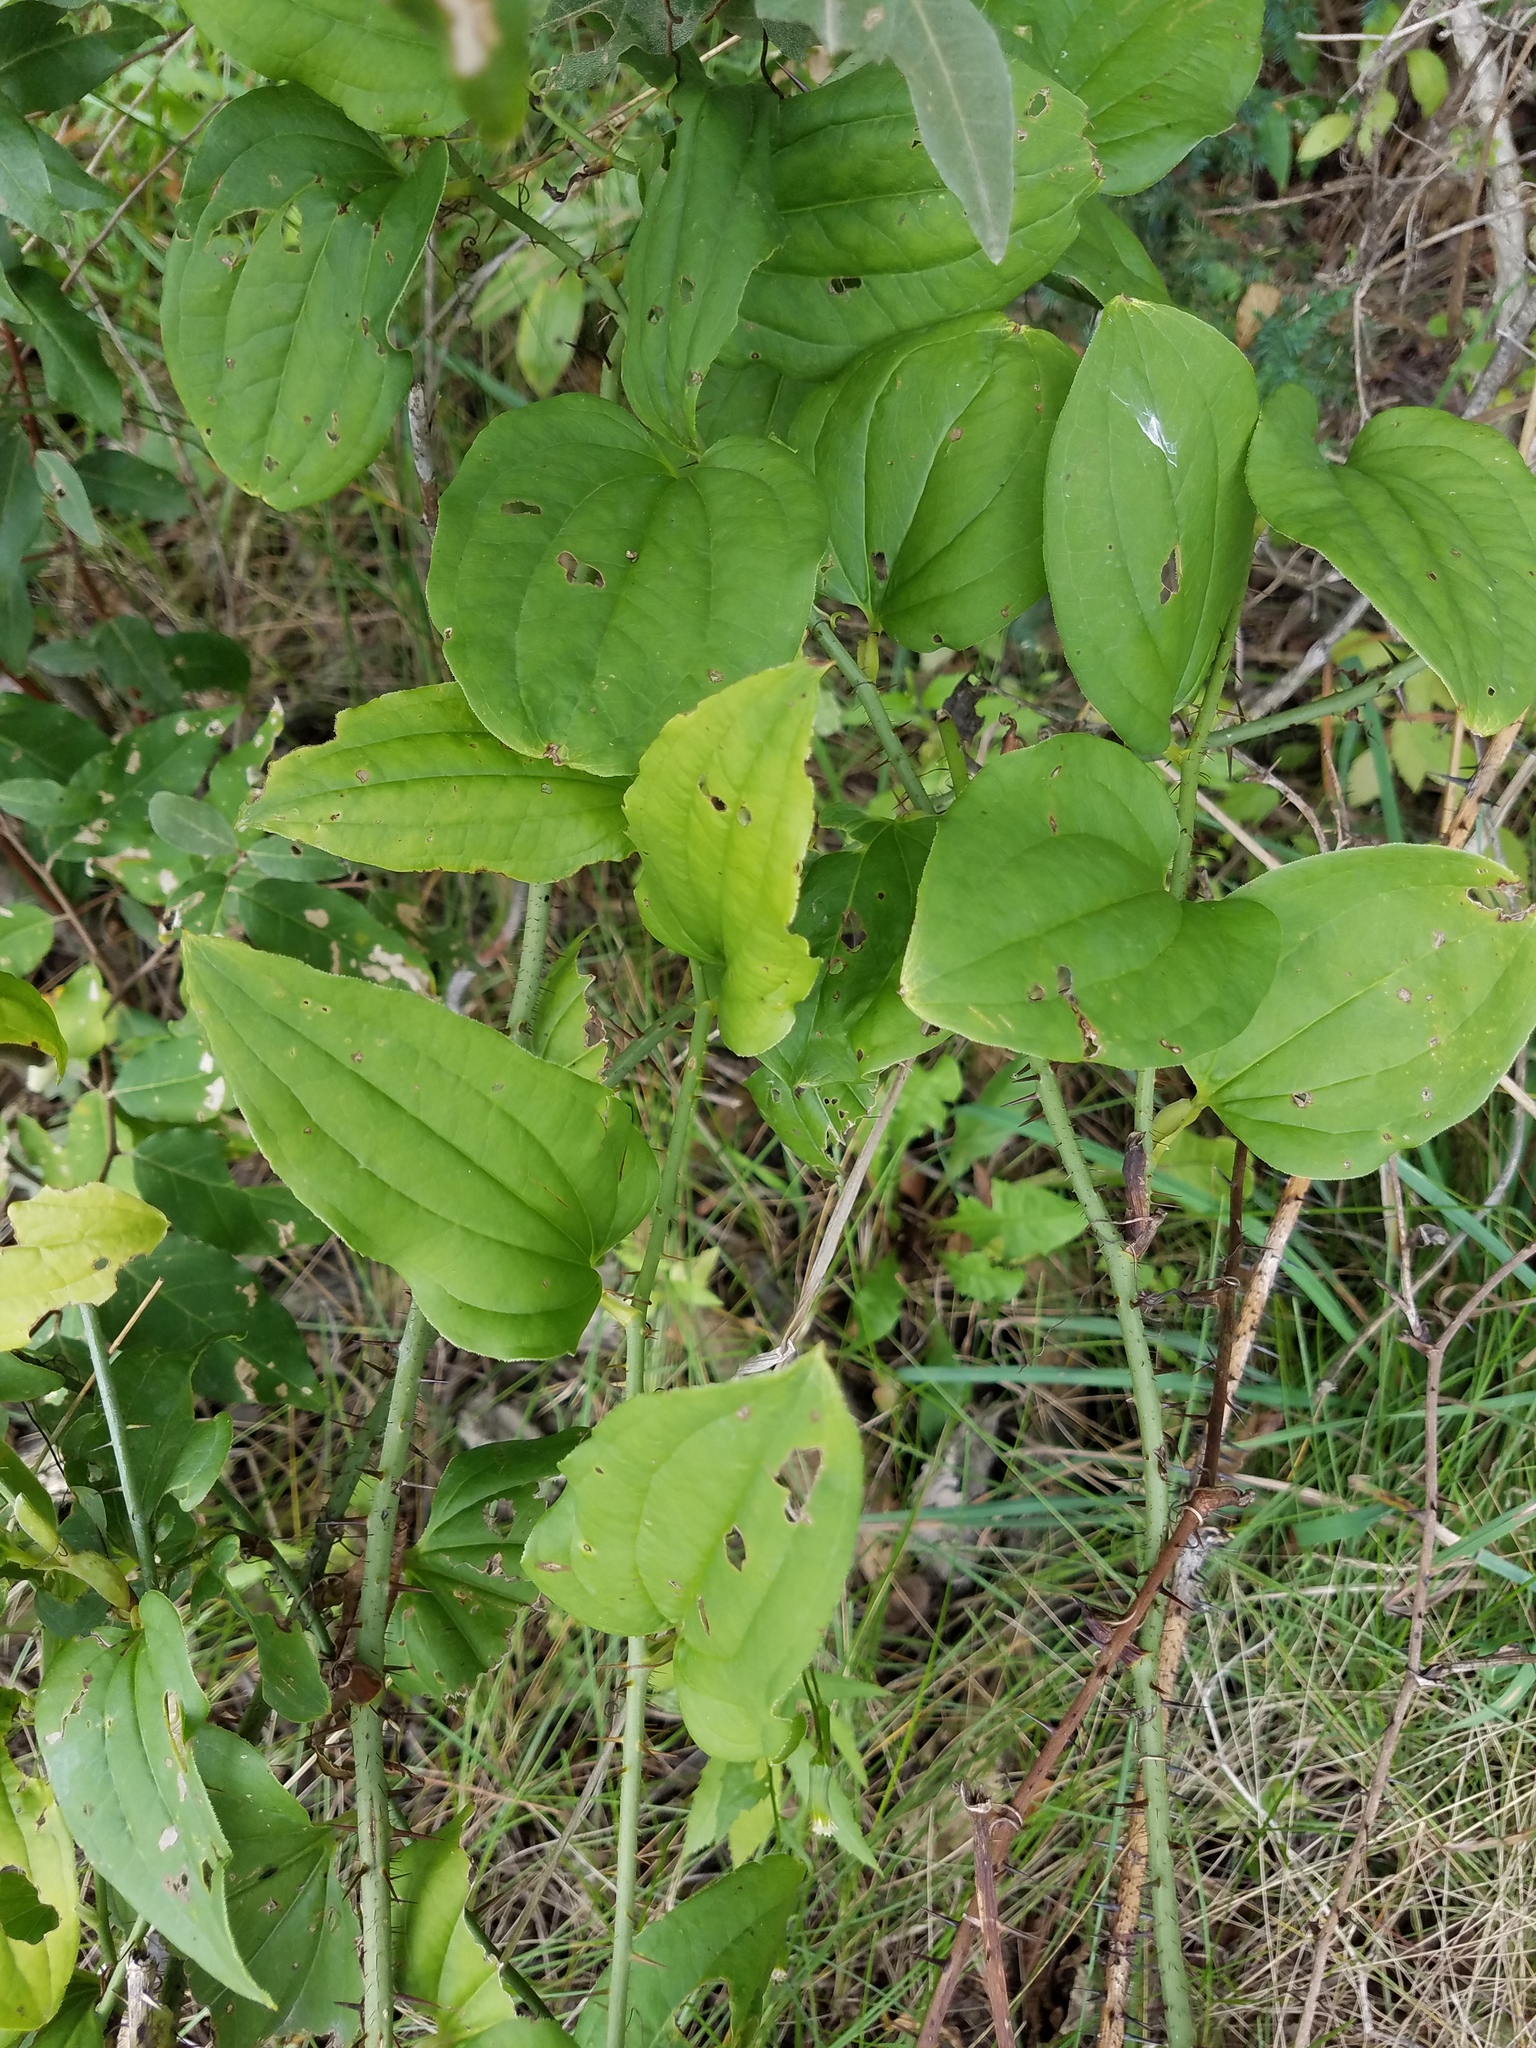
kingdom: Plantae
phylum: Tracheophyta
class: Liliopsida
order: Liliales
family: Smilacaceae
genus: Smilax
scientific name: Smilax tamnoides
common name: Hellfetter
